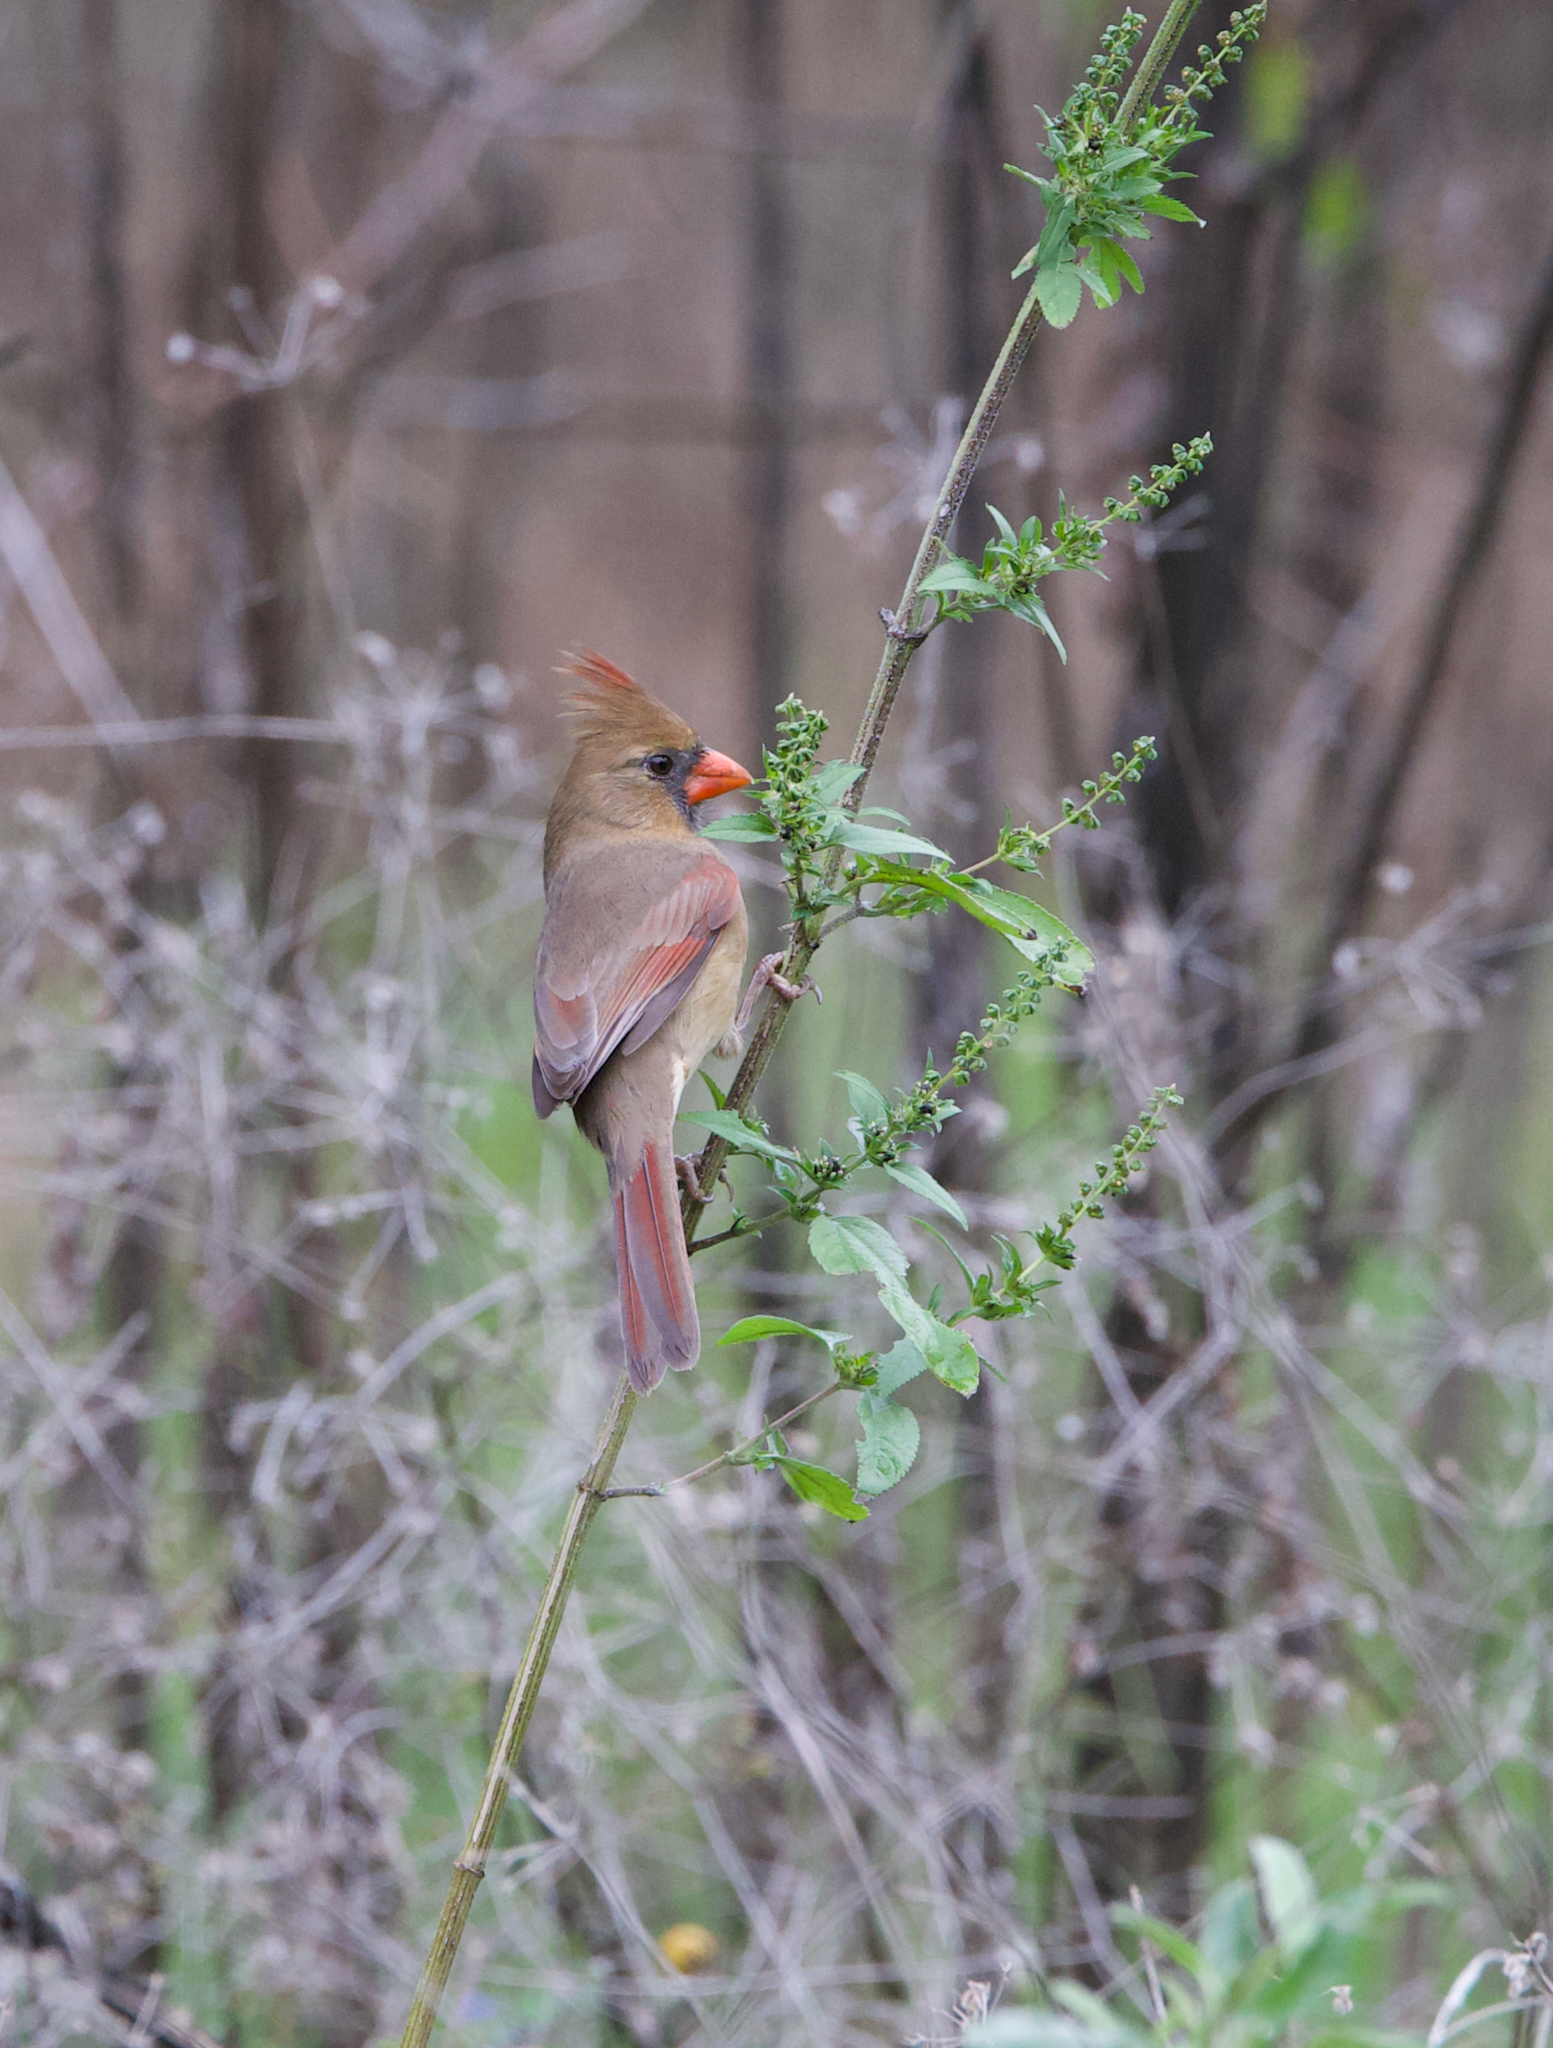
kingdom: Animalia
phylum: Chordata
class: Aves
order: Passeriformes
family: Cardinalidae
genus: Cardinalis
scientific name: Cardinalis cardinalis
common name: Northern cardinal
